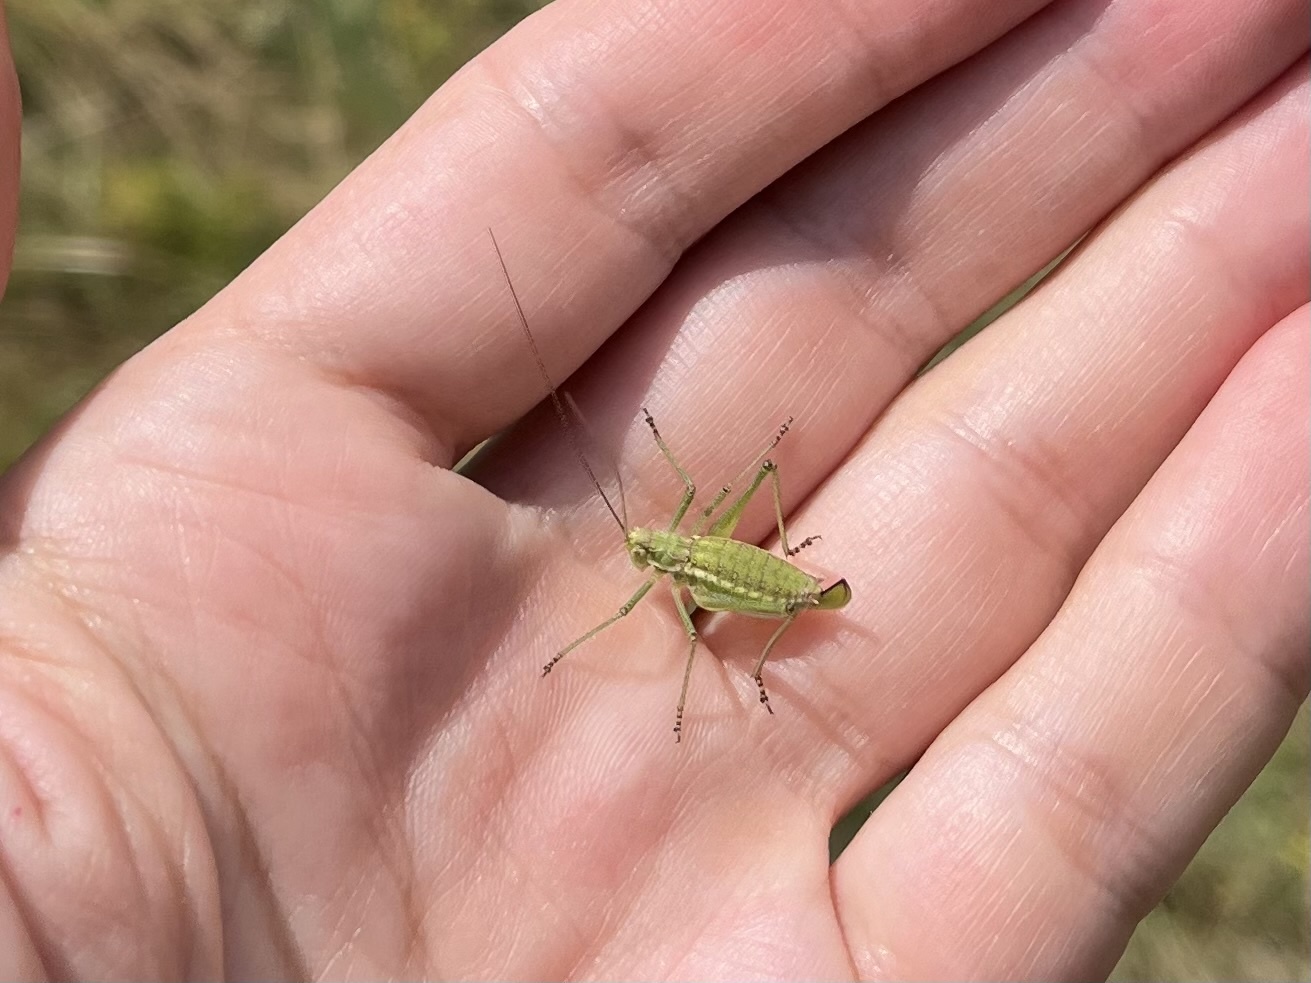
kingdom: Animalia
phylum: Arthropoda
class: Insecta
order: Orthoptera
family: Tettigoniidae
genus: Leptophyes
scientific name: Leptophyes albovittata
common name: Striped bush-cricket
